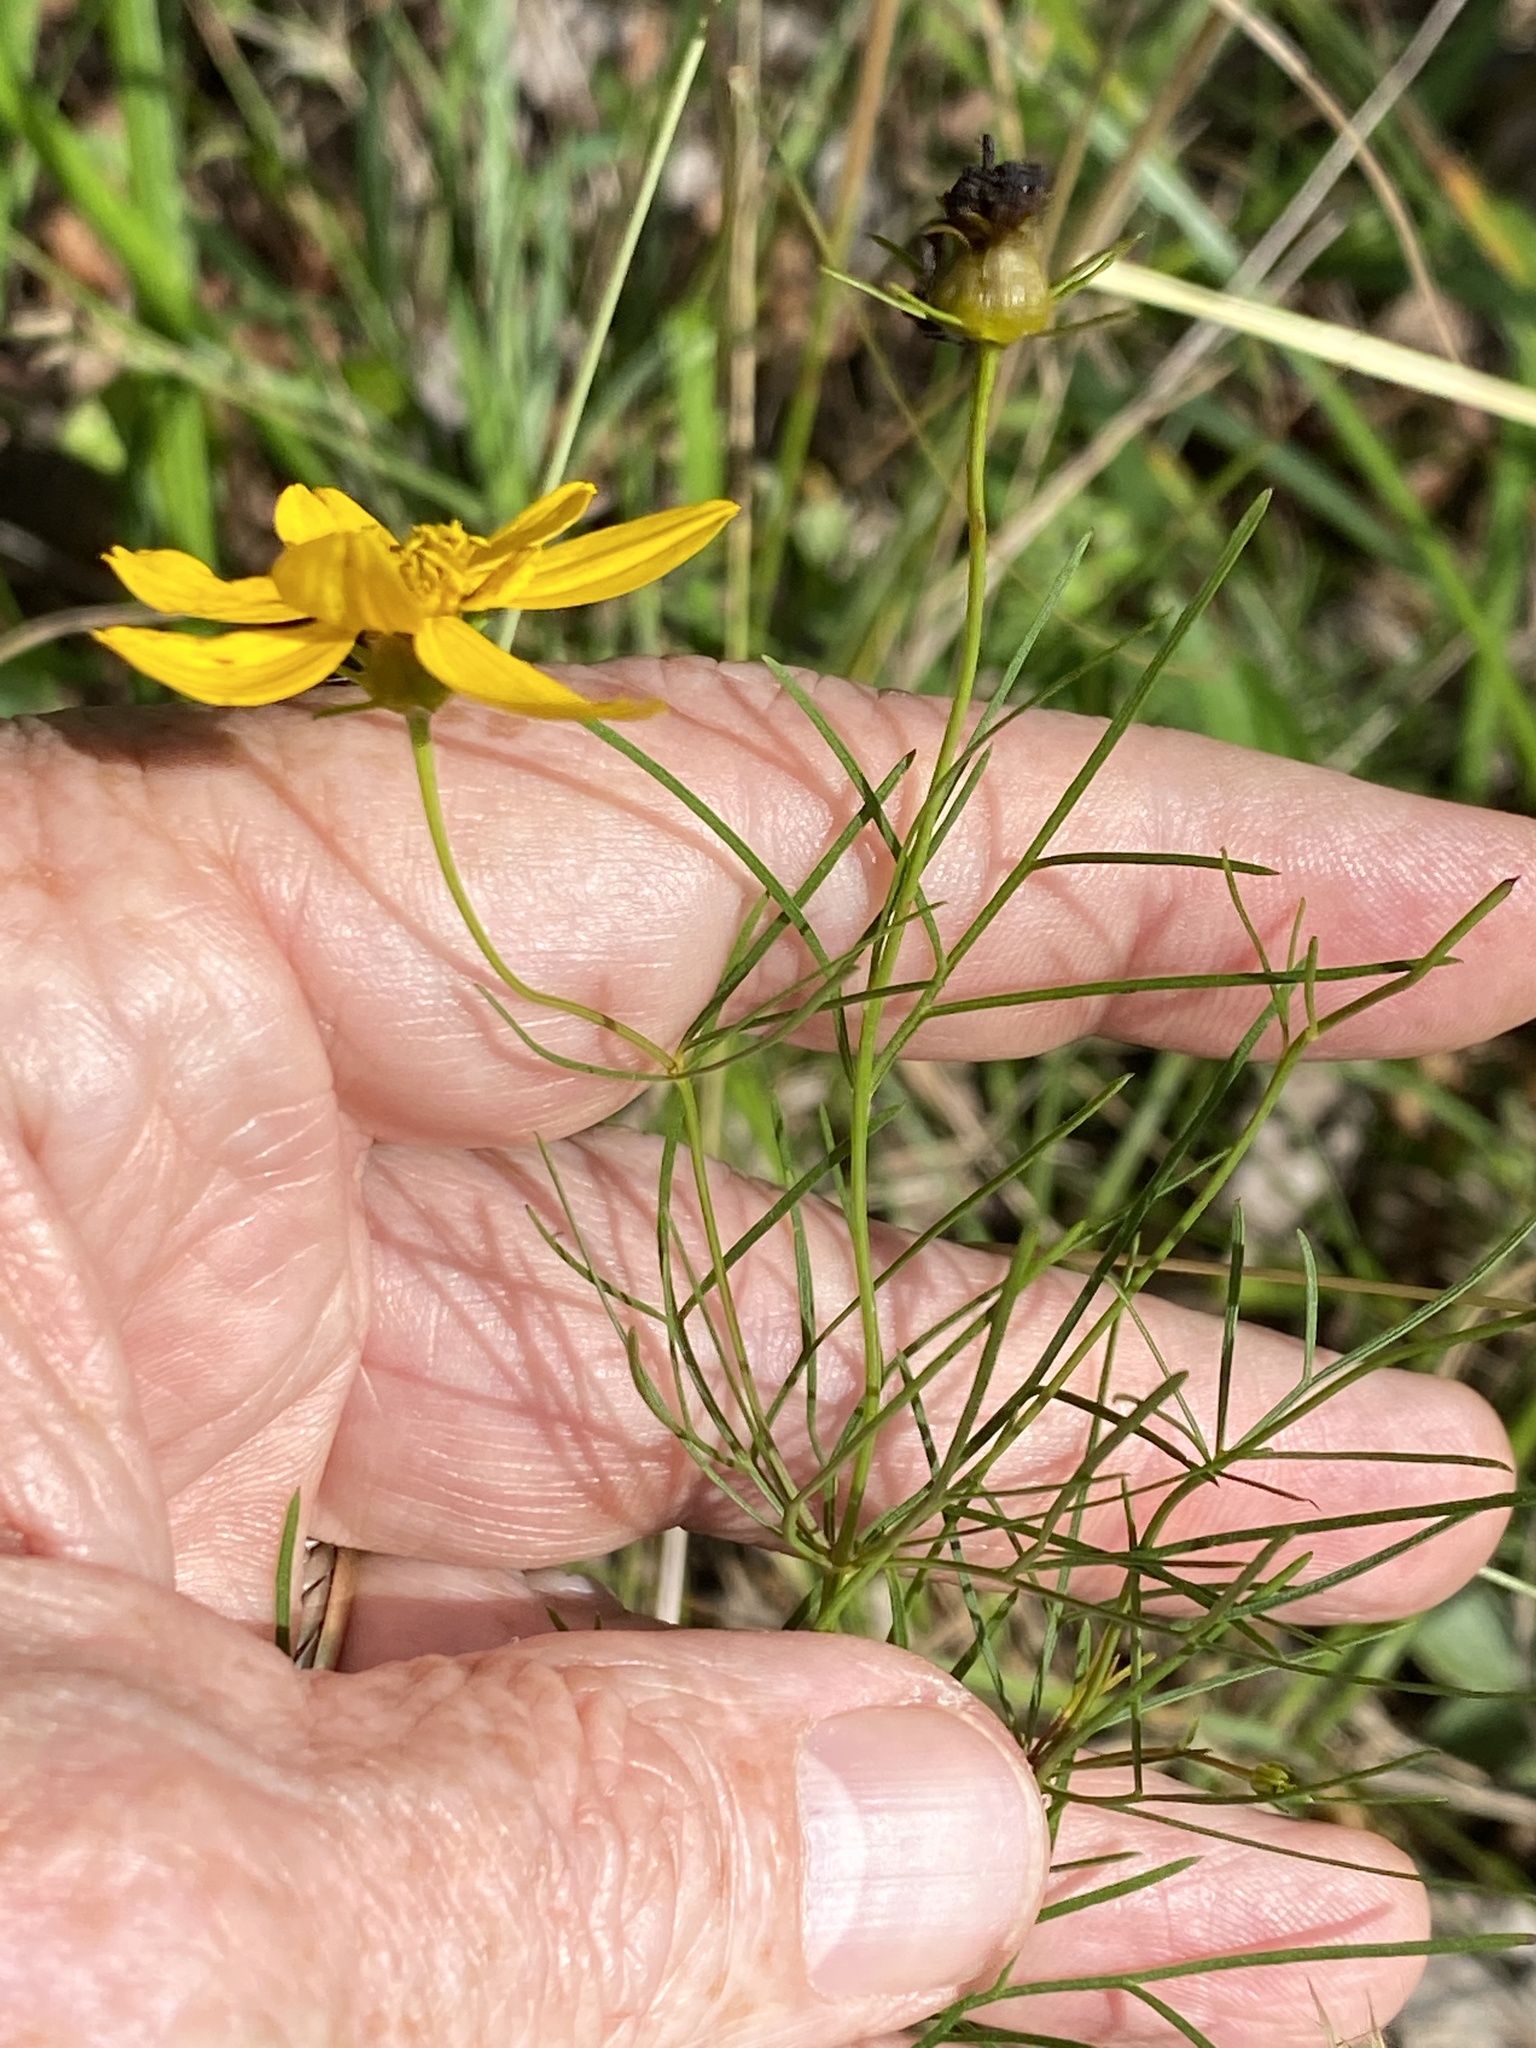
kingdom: Plantae
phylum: Tracheophyta
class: Magnoliopsida
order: Asterales
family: Asteraceae
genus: Coreopsis
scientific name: Coreopsis verticillata
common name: Whorled tickseed
